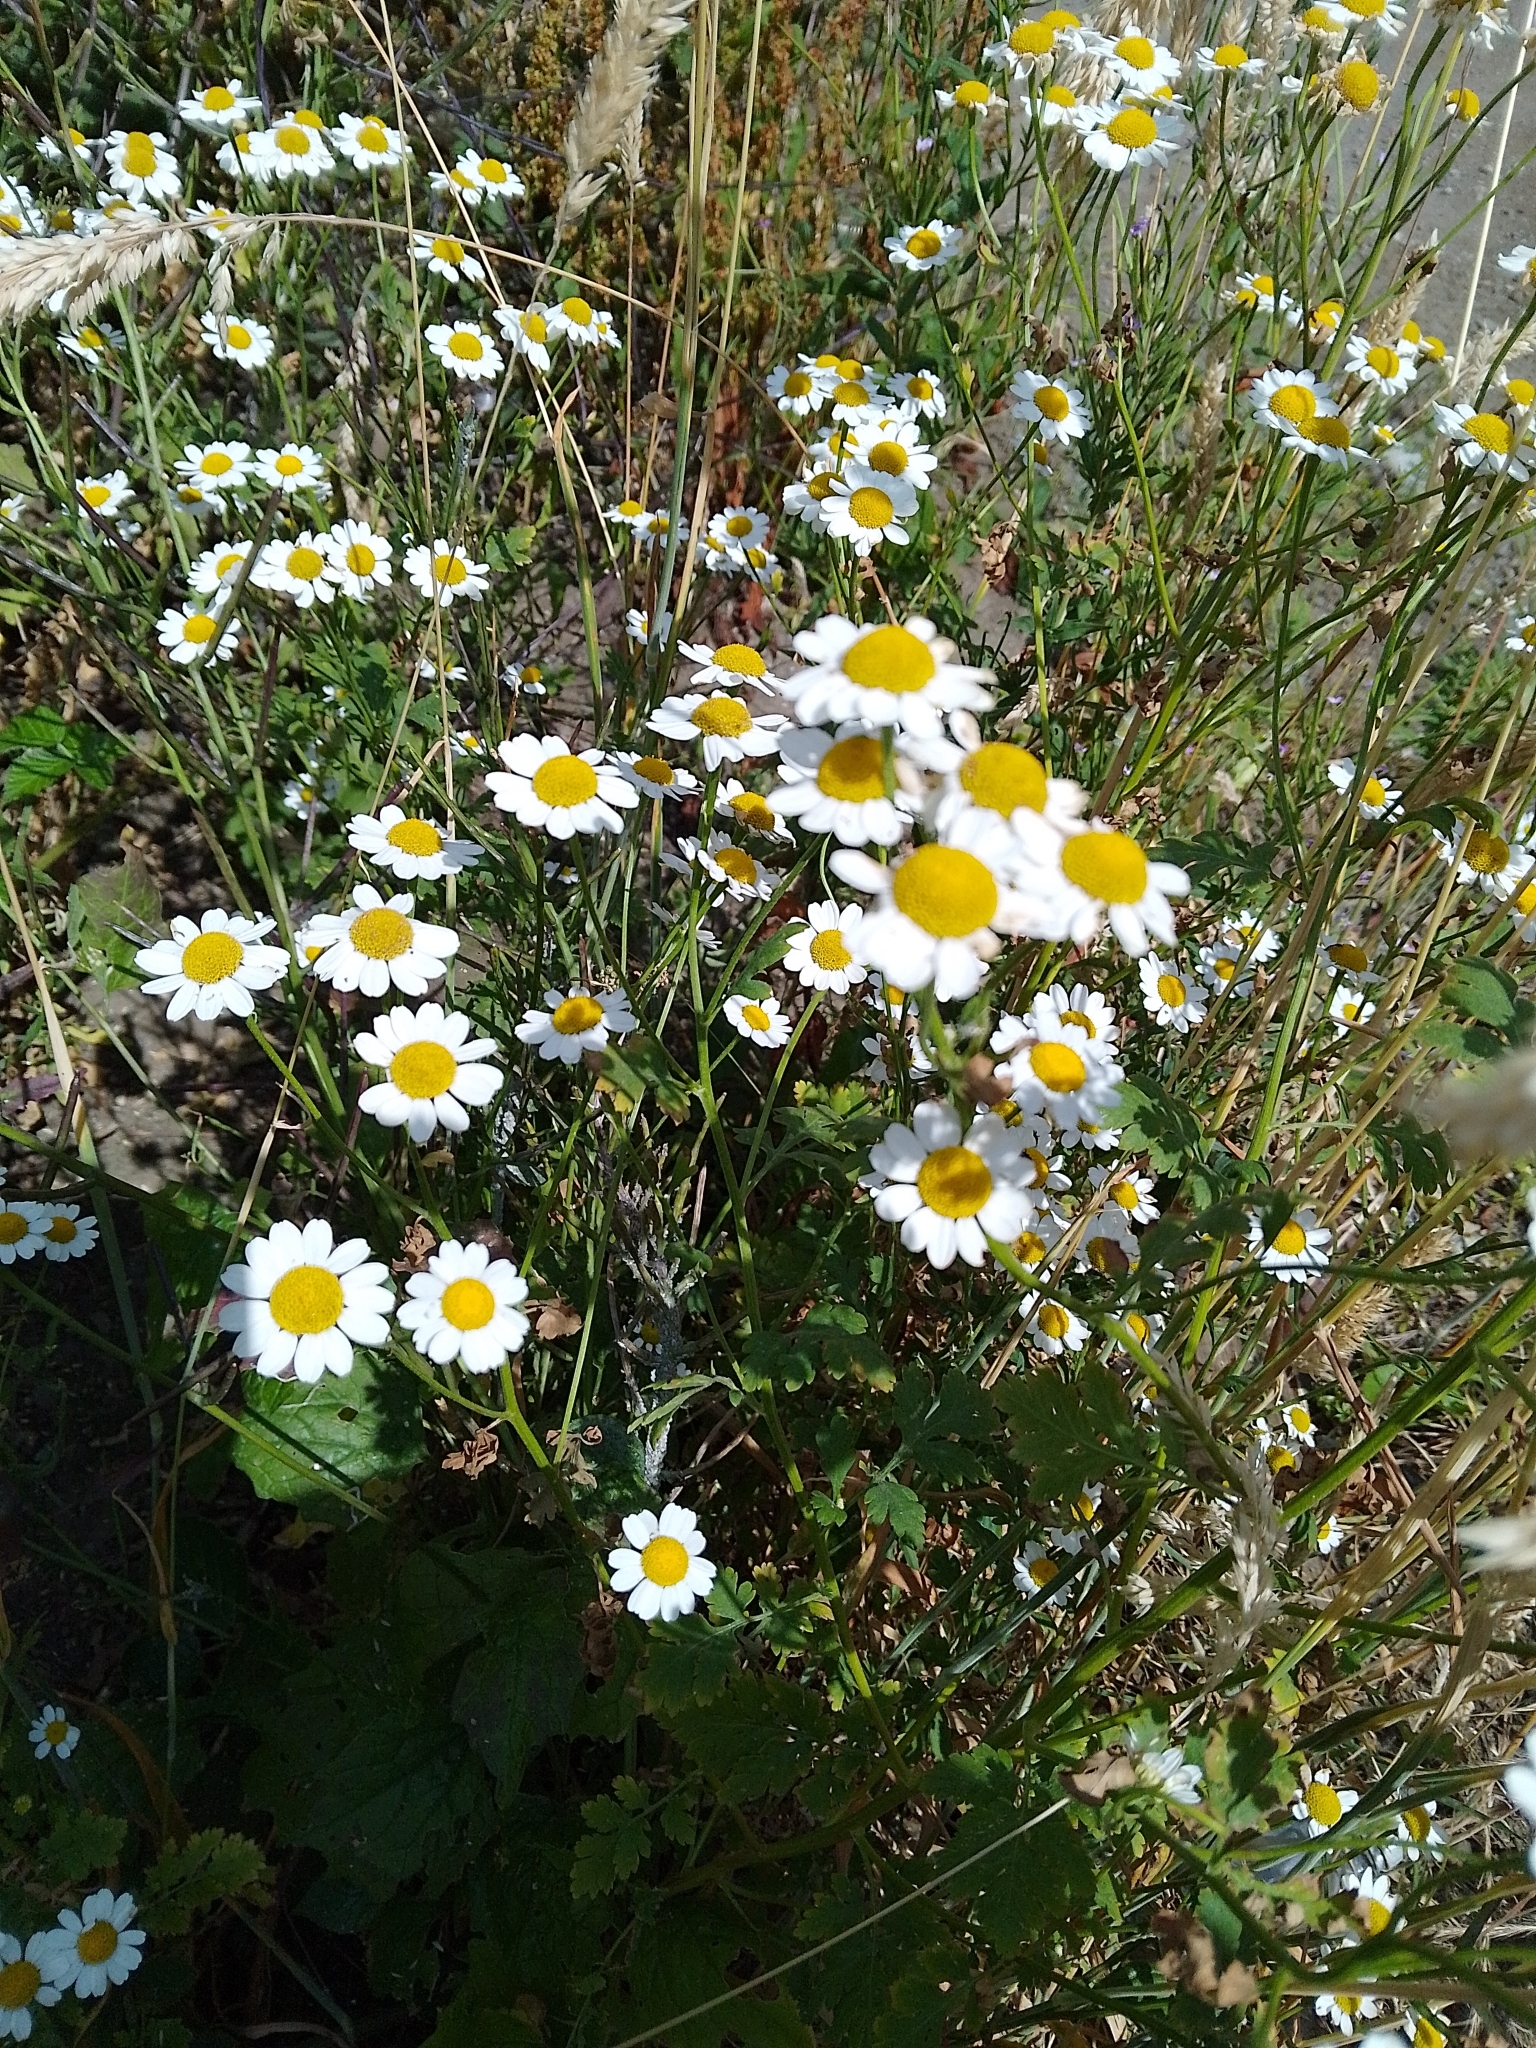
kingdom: Plantae
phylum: Tracheophyta
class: Magnoliopsida
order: Asterales
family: Asteraceae
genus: Tanacetum
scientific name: Tanacetum parthenium
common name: Feverfew
